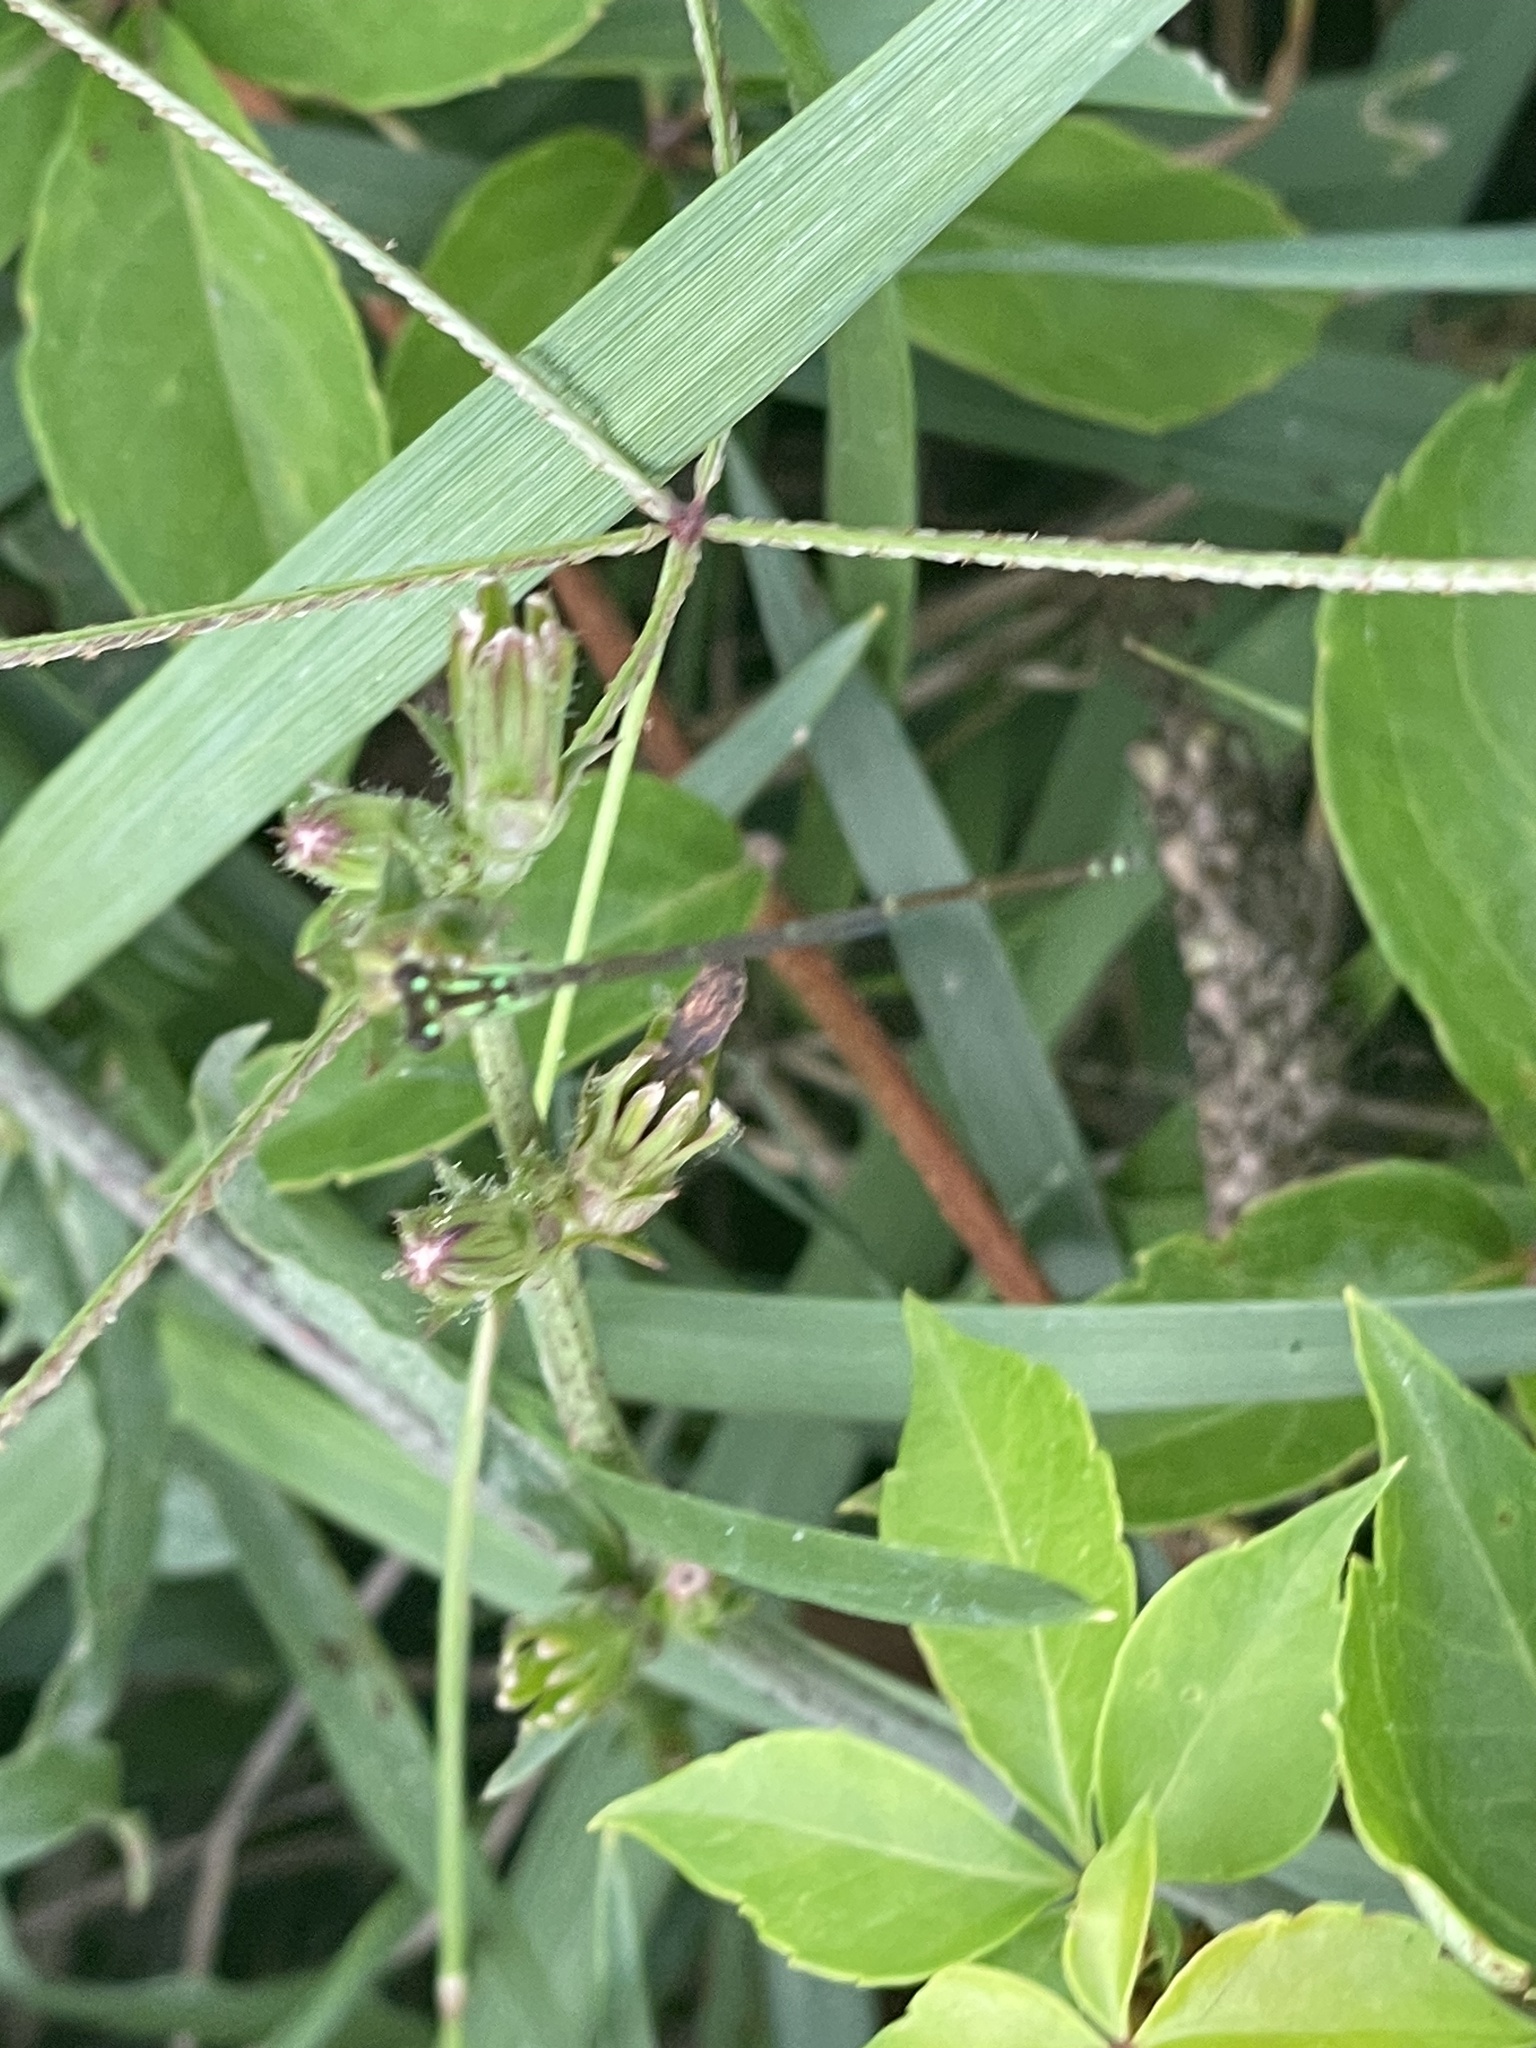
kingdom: Animalia
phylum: Arthropoda
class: Insecta
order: Odonata
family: Coenagrionidae
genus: Ischnura
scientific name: Ischnura posita
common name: Fragile forktail
